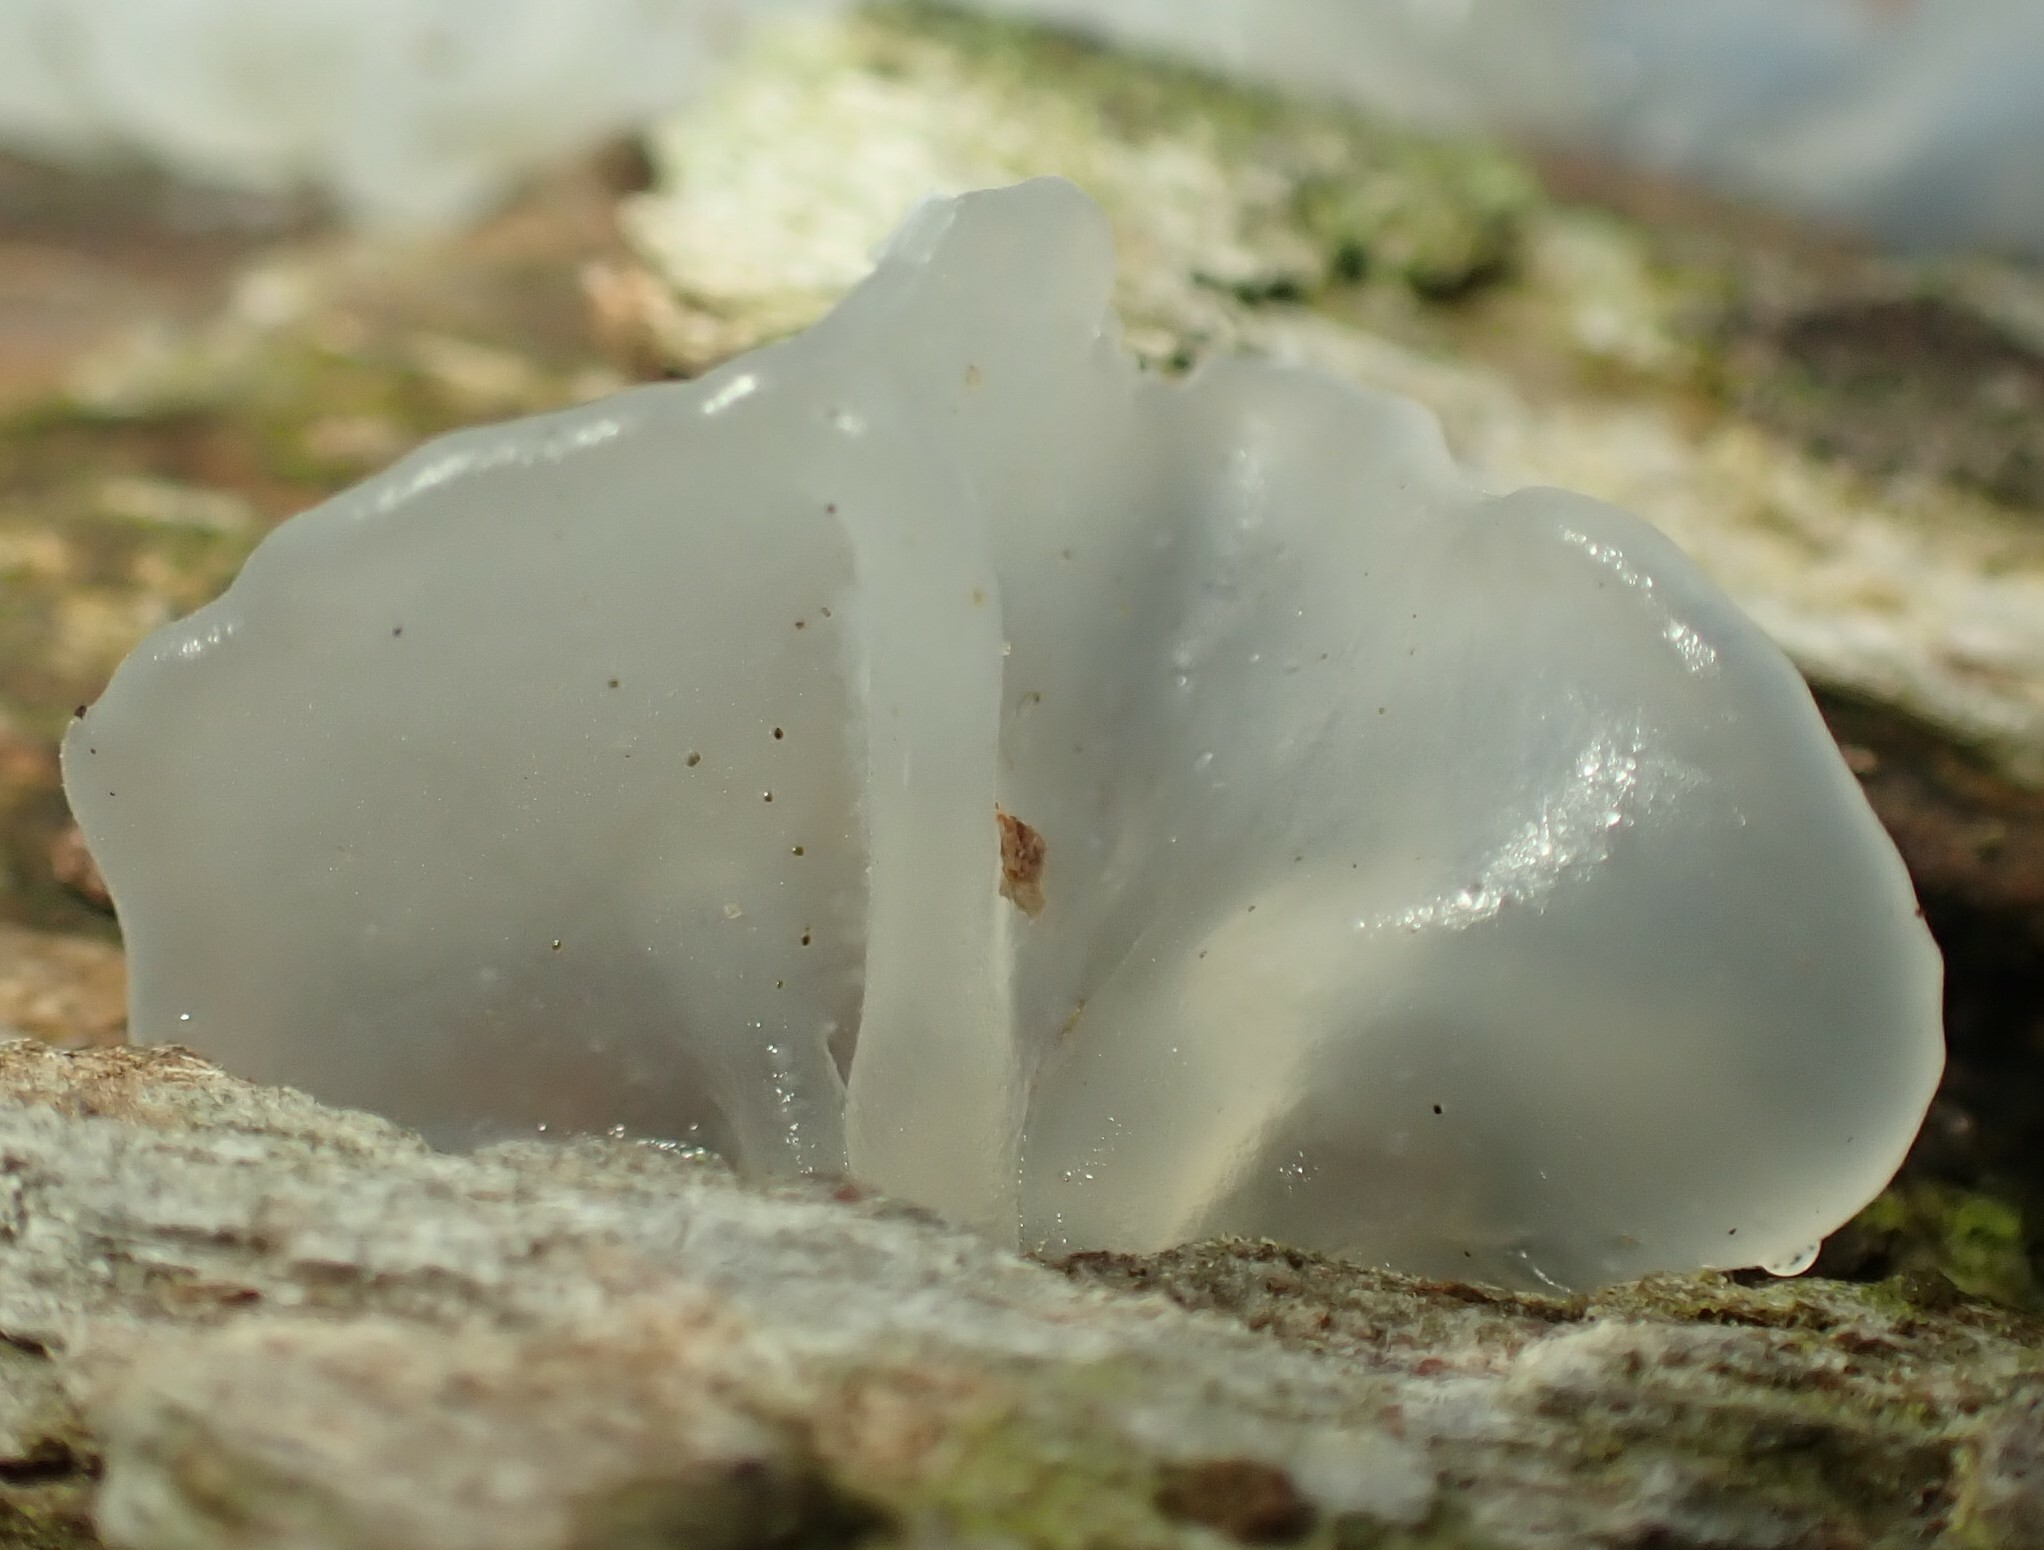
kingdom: Fungi
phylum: Basidiomycota
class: Tremellomycetes
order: Tremellales
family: Tremellaceae
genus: Tremella
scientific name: Tremella fuciformis
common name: Snow fungus
